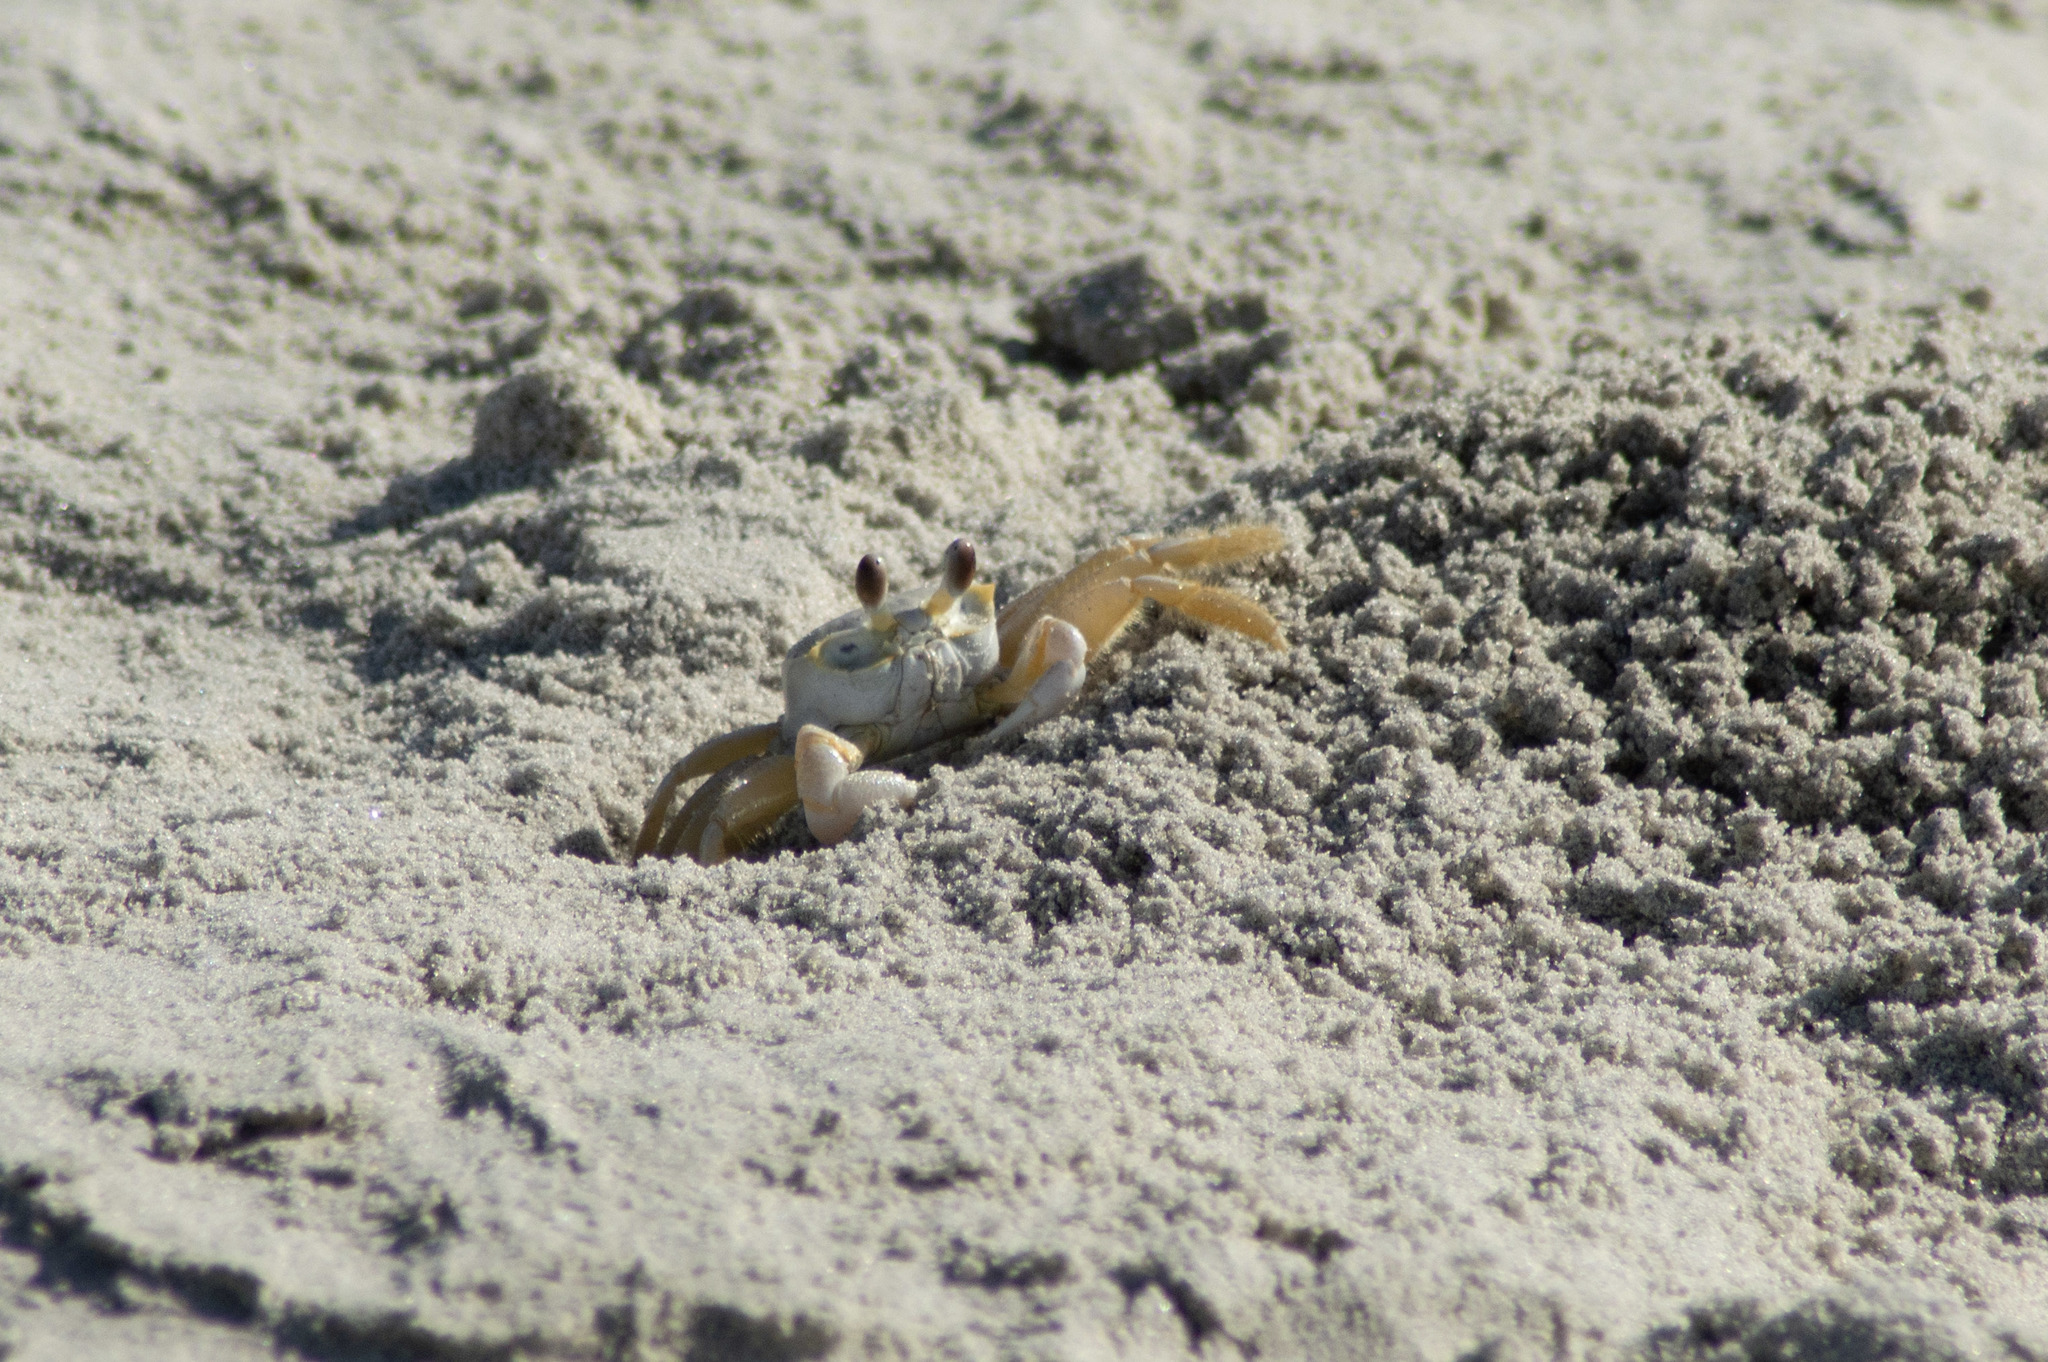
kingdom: Animalia
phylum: Arthropoda
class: Malacostraca
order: Decapoda
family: Ocypodidae
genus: Ocypode
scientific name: Ocypode quadrata
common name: Ghost crab
